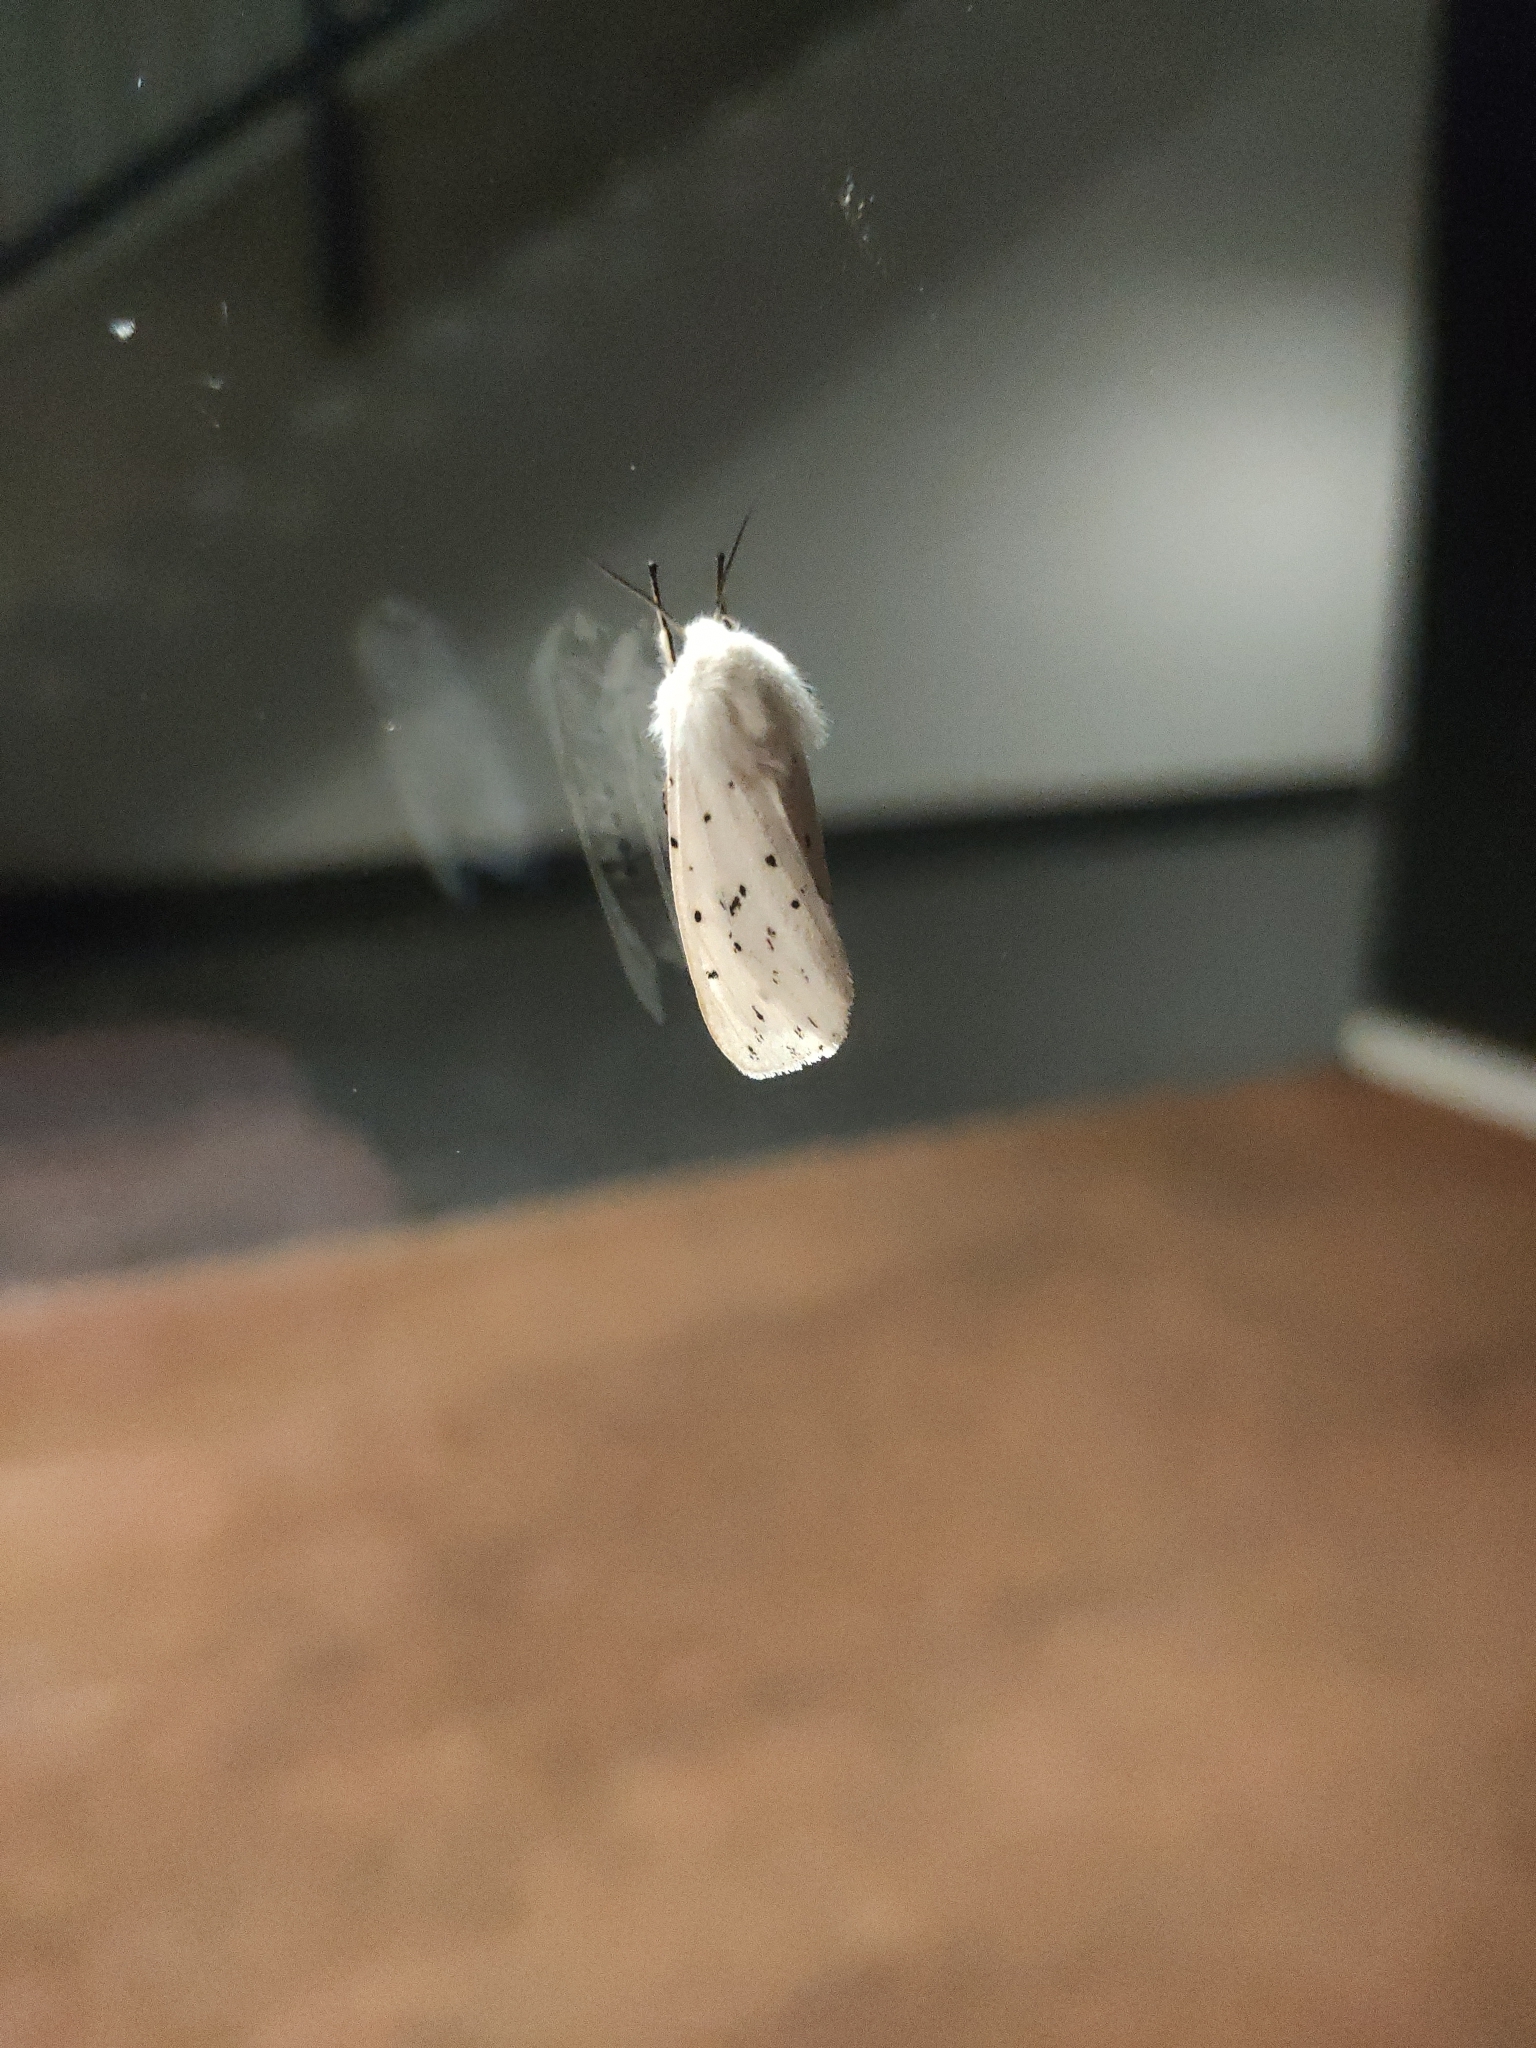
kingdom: Animalia
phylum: Arthropoda
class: Insecta
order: Lepidoptera
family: Erebidae
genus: Spilosoma
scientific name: Spilosoma lubricipeda
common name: White ermine
